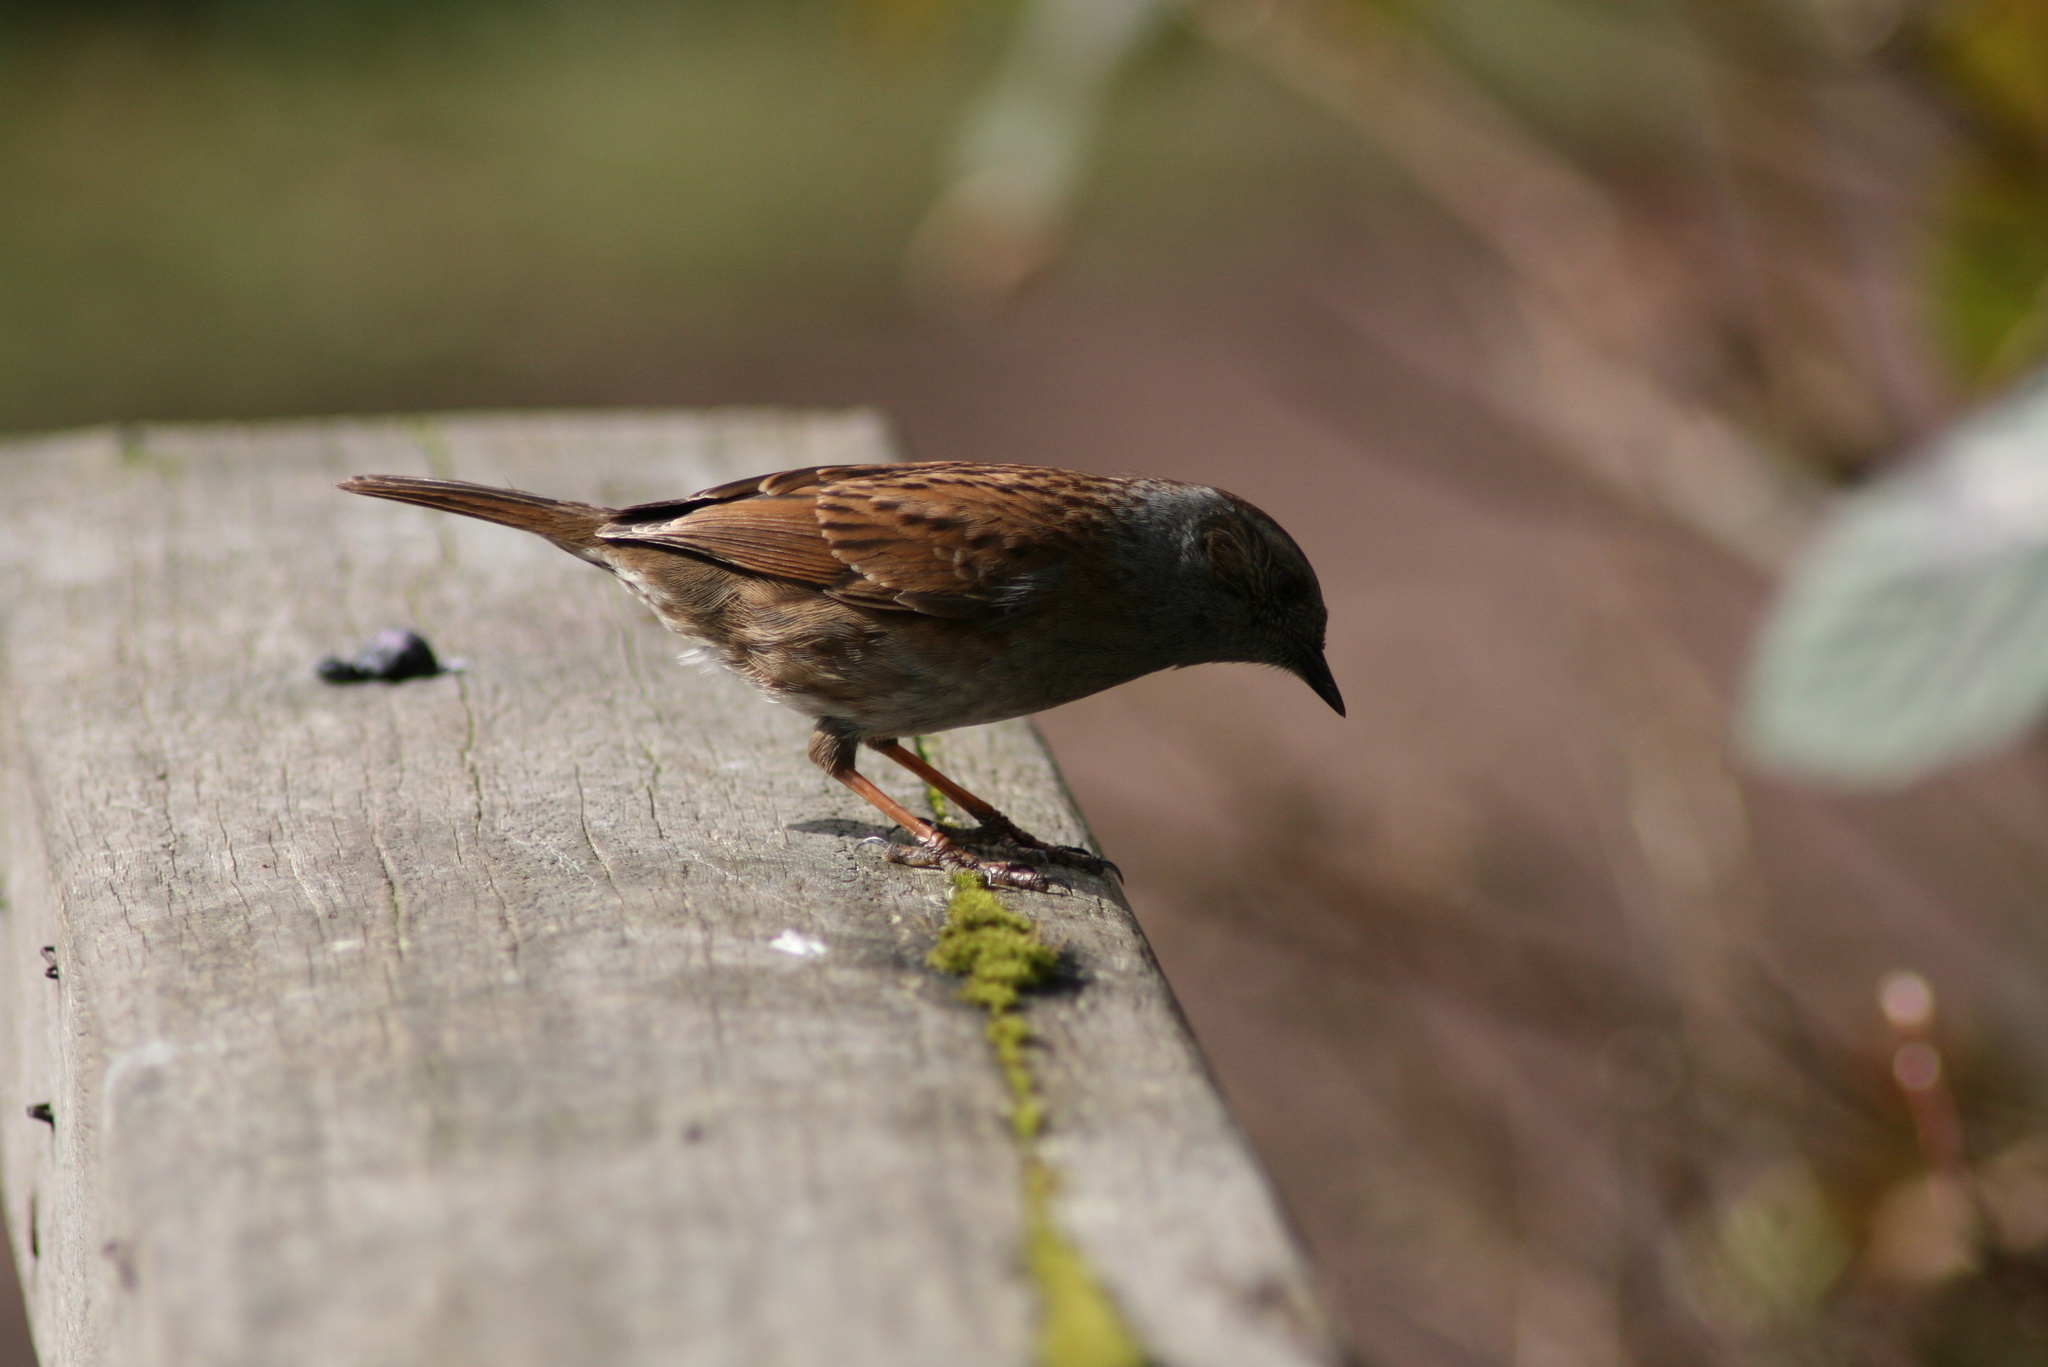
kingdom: Animalia
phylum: Chordata
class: Aves
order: Passeriformes
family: Prunellidae
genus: Prunella
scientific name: Prunella modularis
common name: Dunnock
